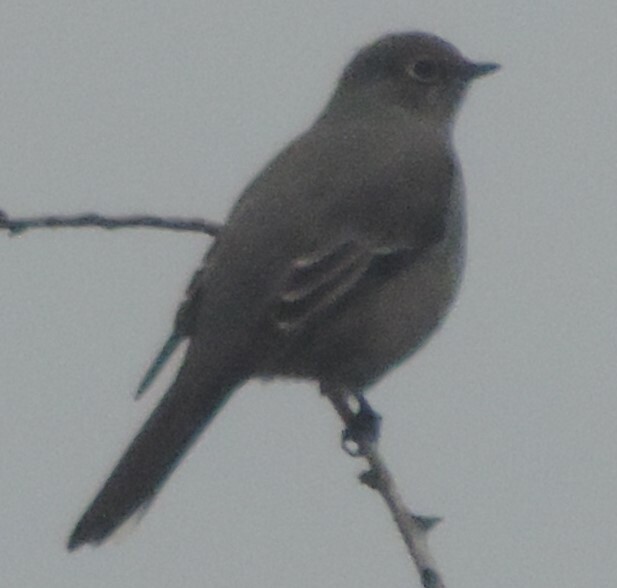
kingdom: Animalia
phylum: Chordata
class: Aves
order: Passeriformes
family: Turdidae
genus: Myadestes
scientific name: Myadestes townsendi
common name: Townsend's solitaire
